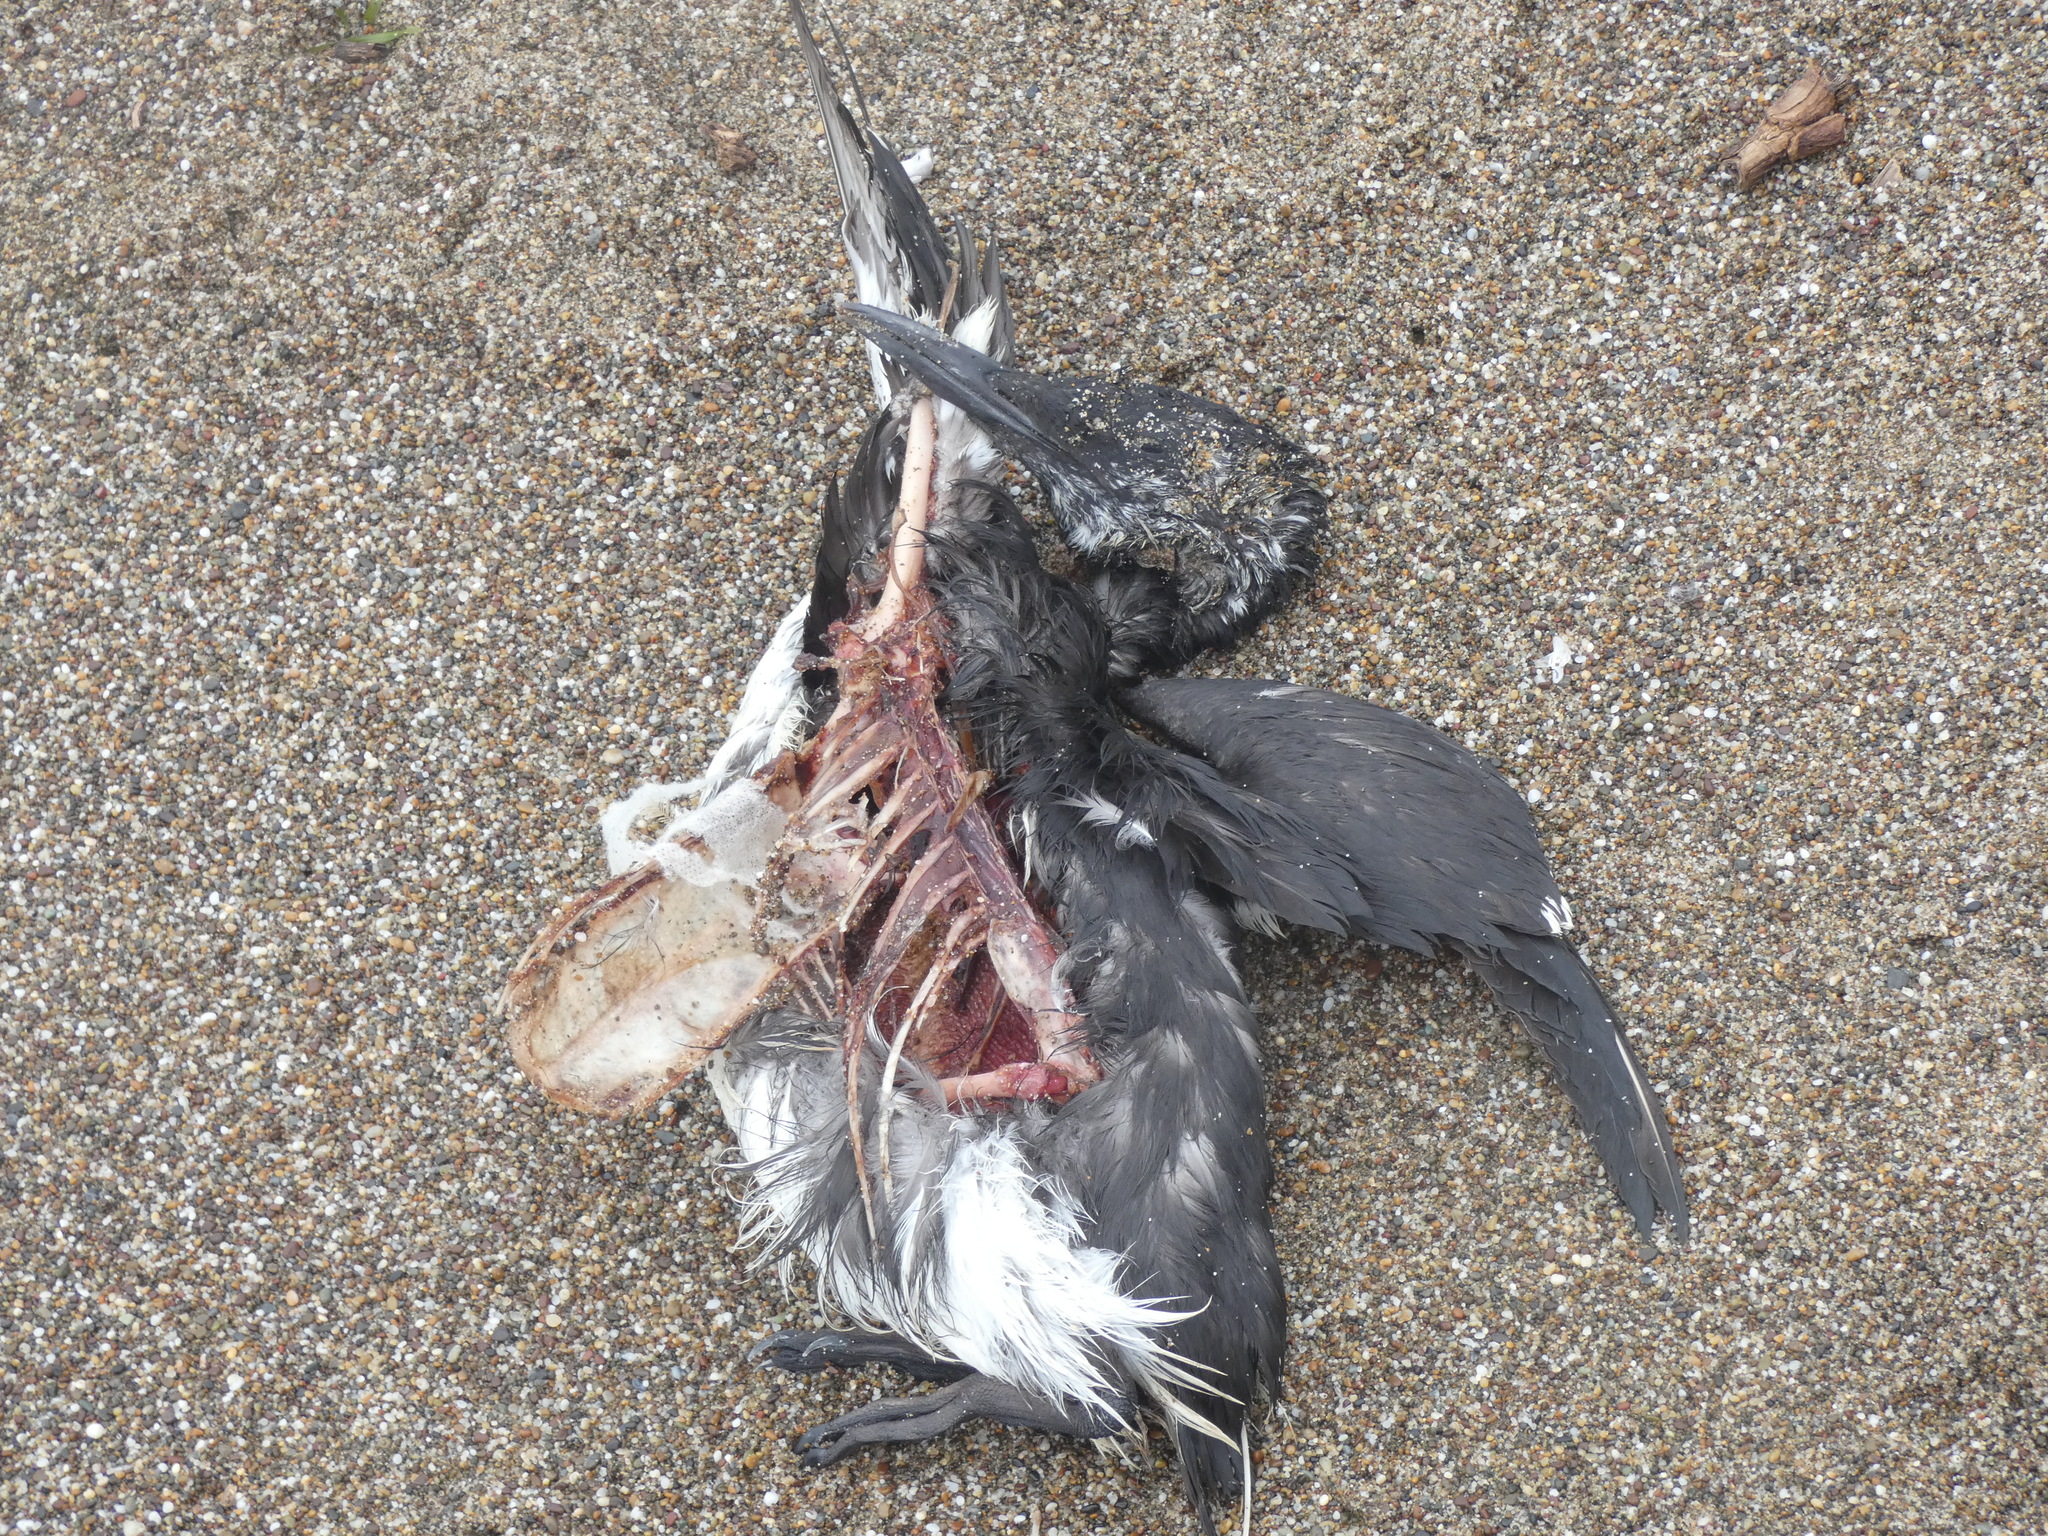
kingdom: Animalia
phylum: Chordata
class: Aves
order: Charadriiformes
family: Alcidae
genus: Uria
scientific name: Uria aalge
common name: Common murre
